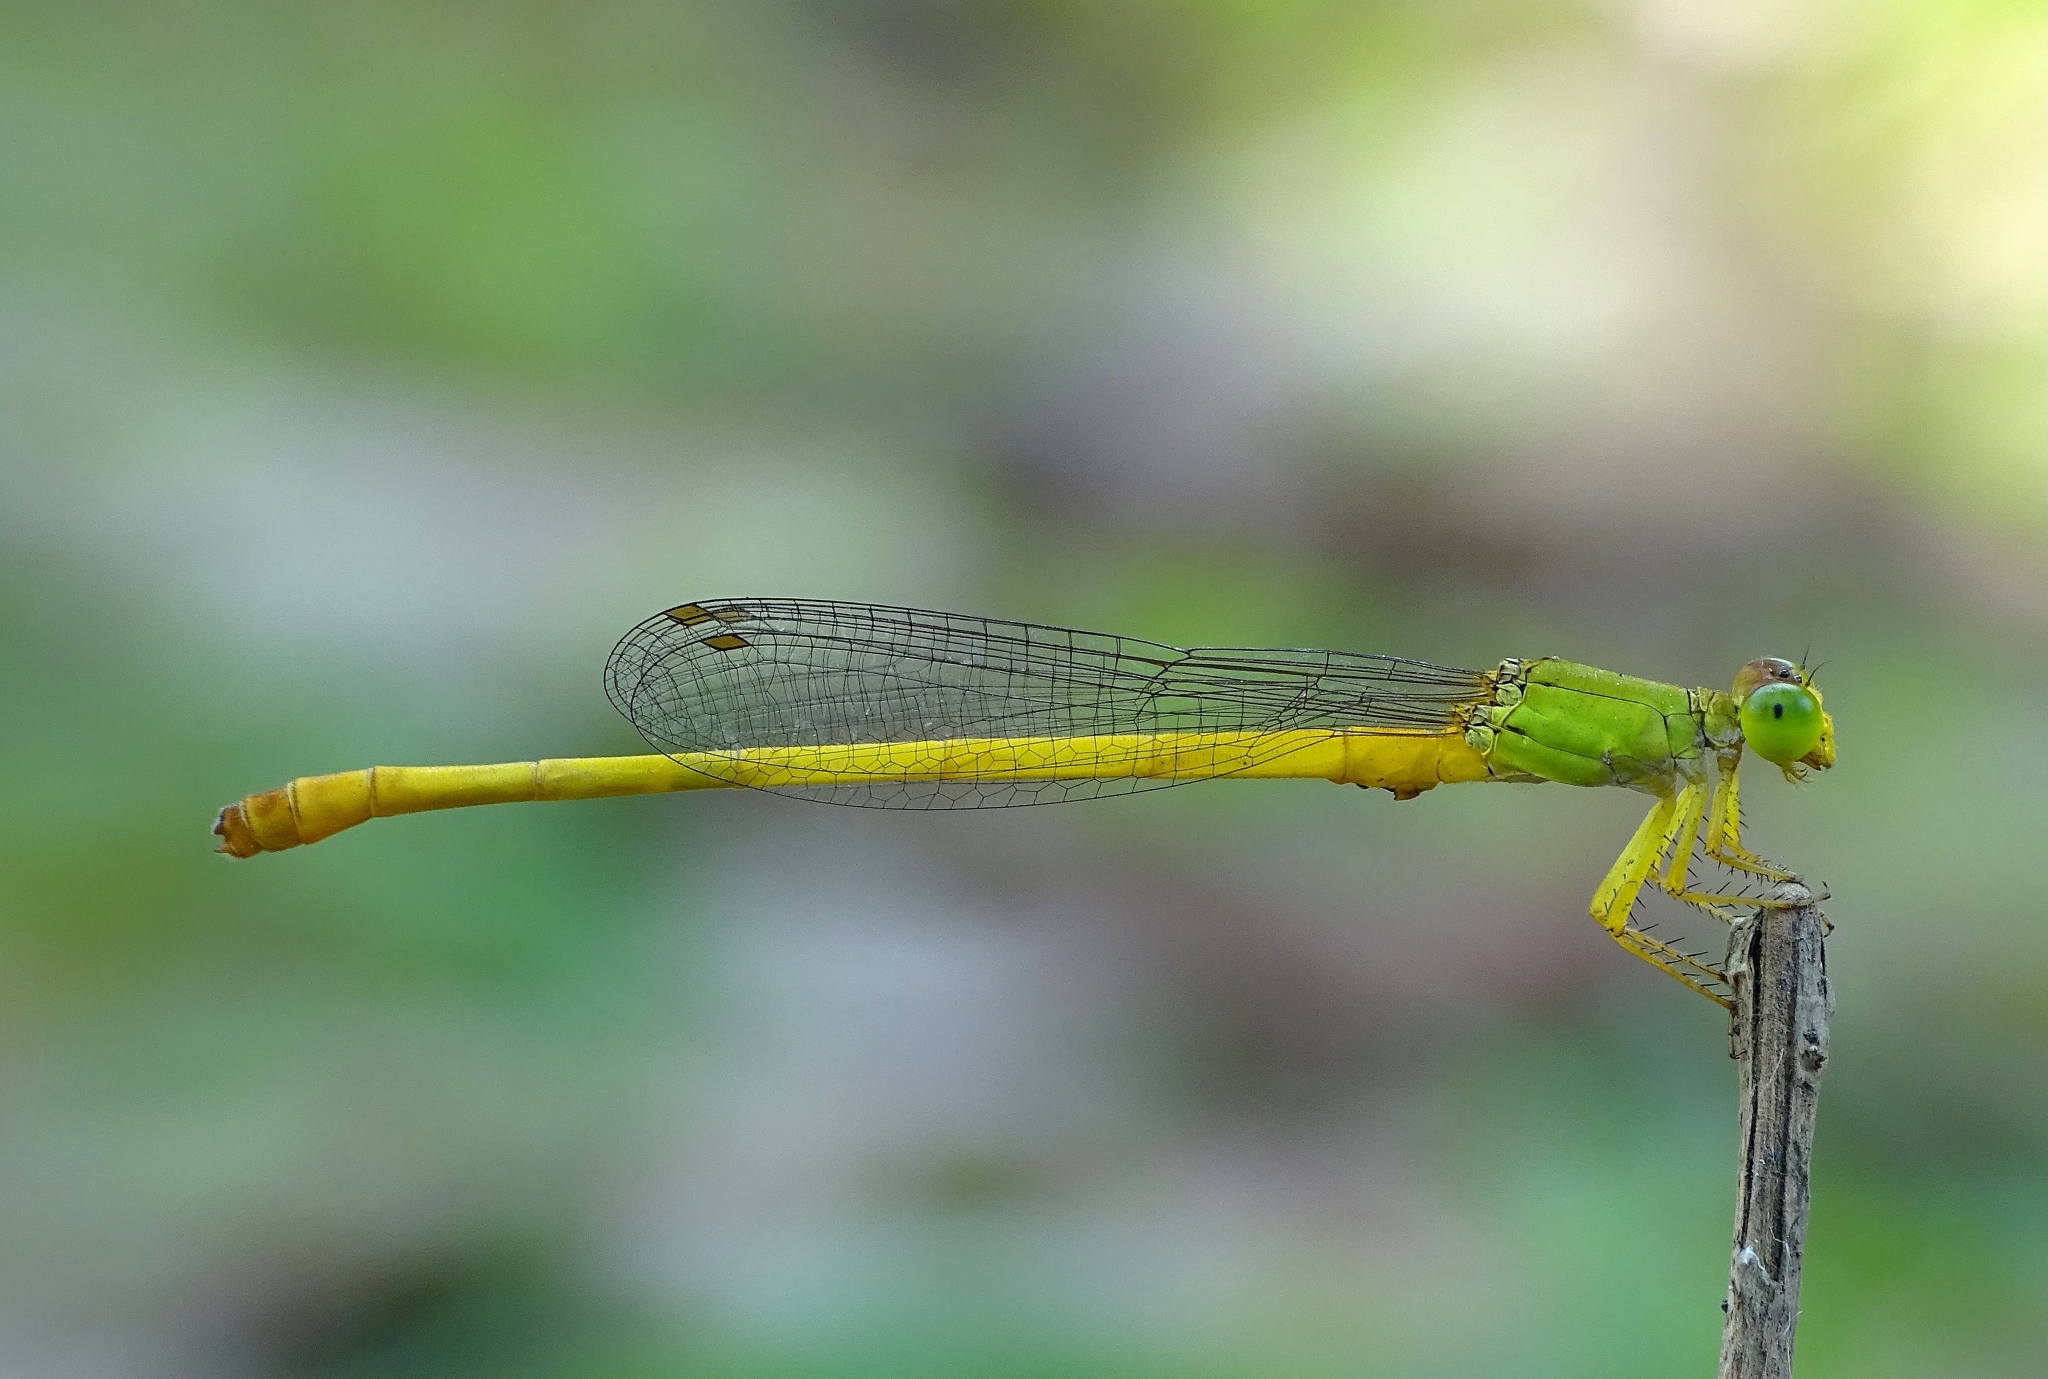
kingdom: Animalia
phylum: Arthropoda
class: Insecta
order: Odonata
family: Coenagrionidae
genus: Ceriagrion
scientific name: Ceriagrion coromandelianum
